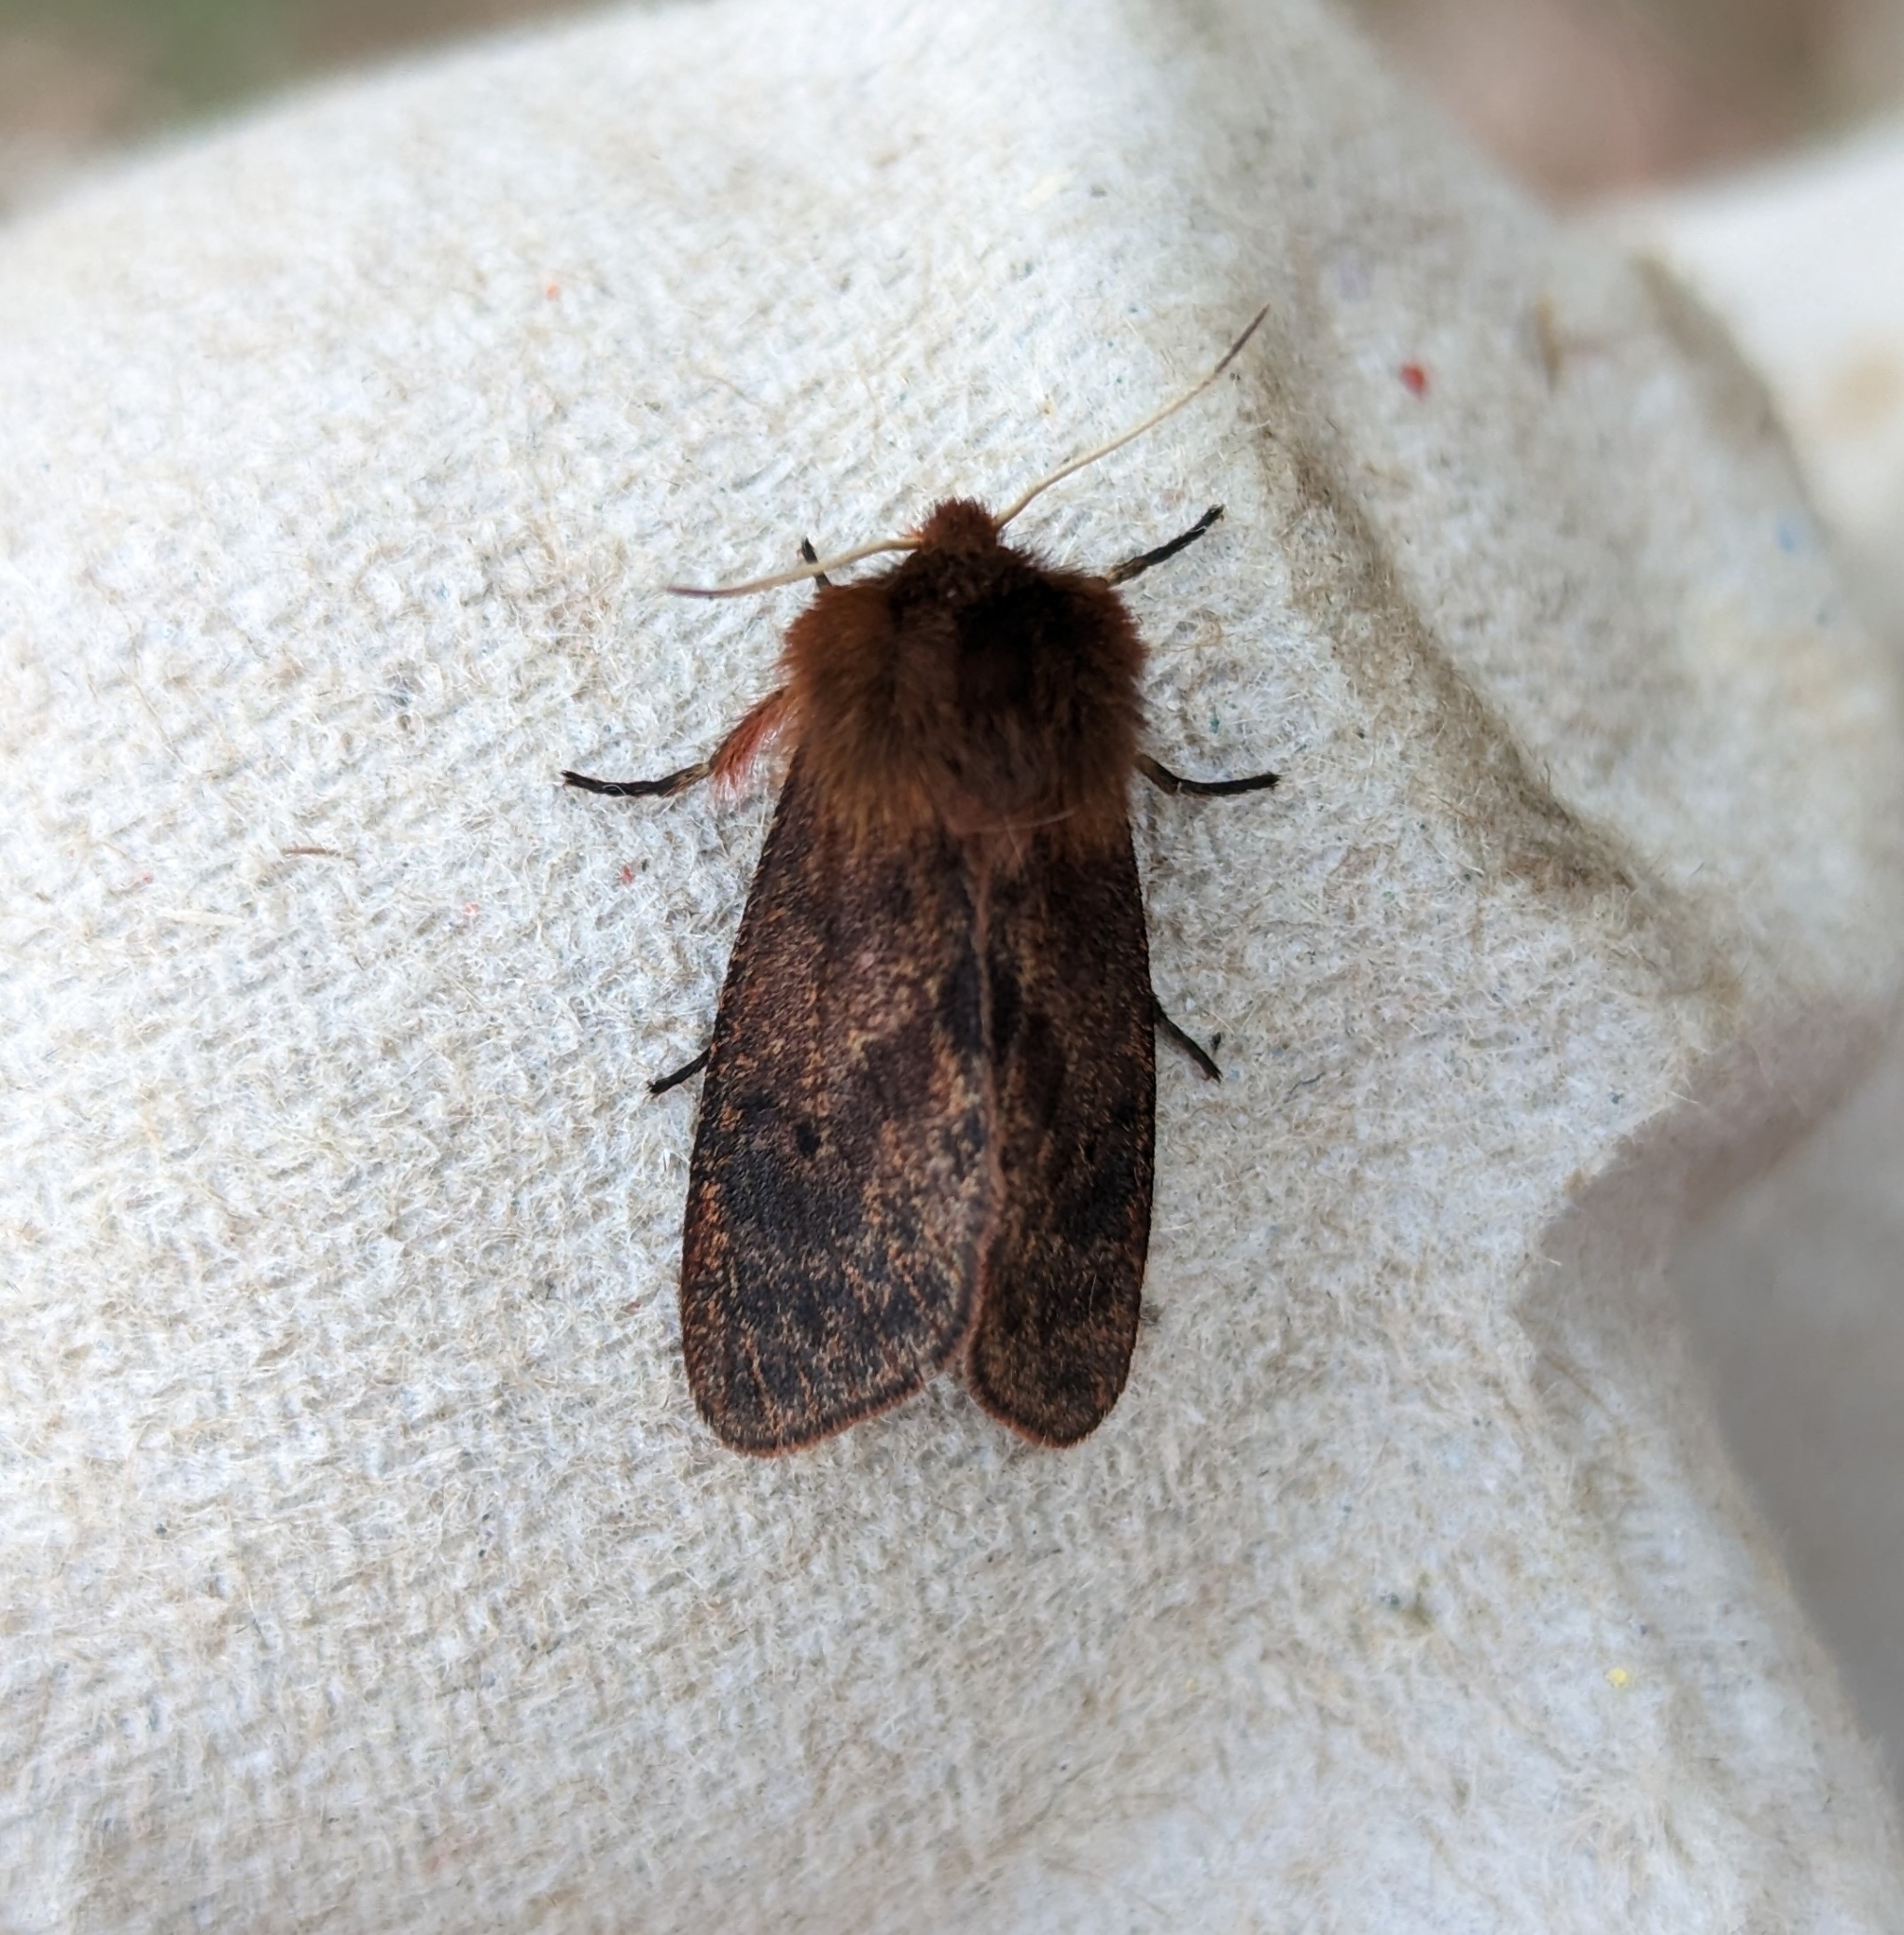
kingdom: Animalia
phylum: Arthropoda
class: Insecta
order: Lepidoptera
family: Erebidae
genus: Phragmatobia
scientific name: Phragmatobia assimilans
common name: Large ruby tiger moth
